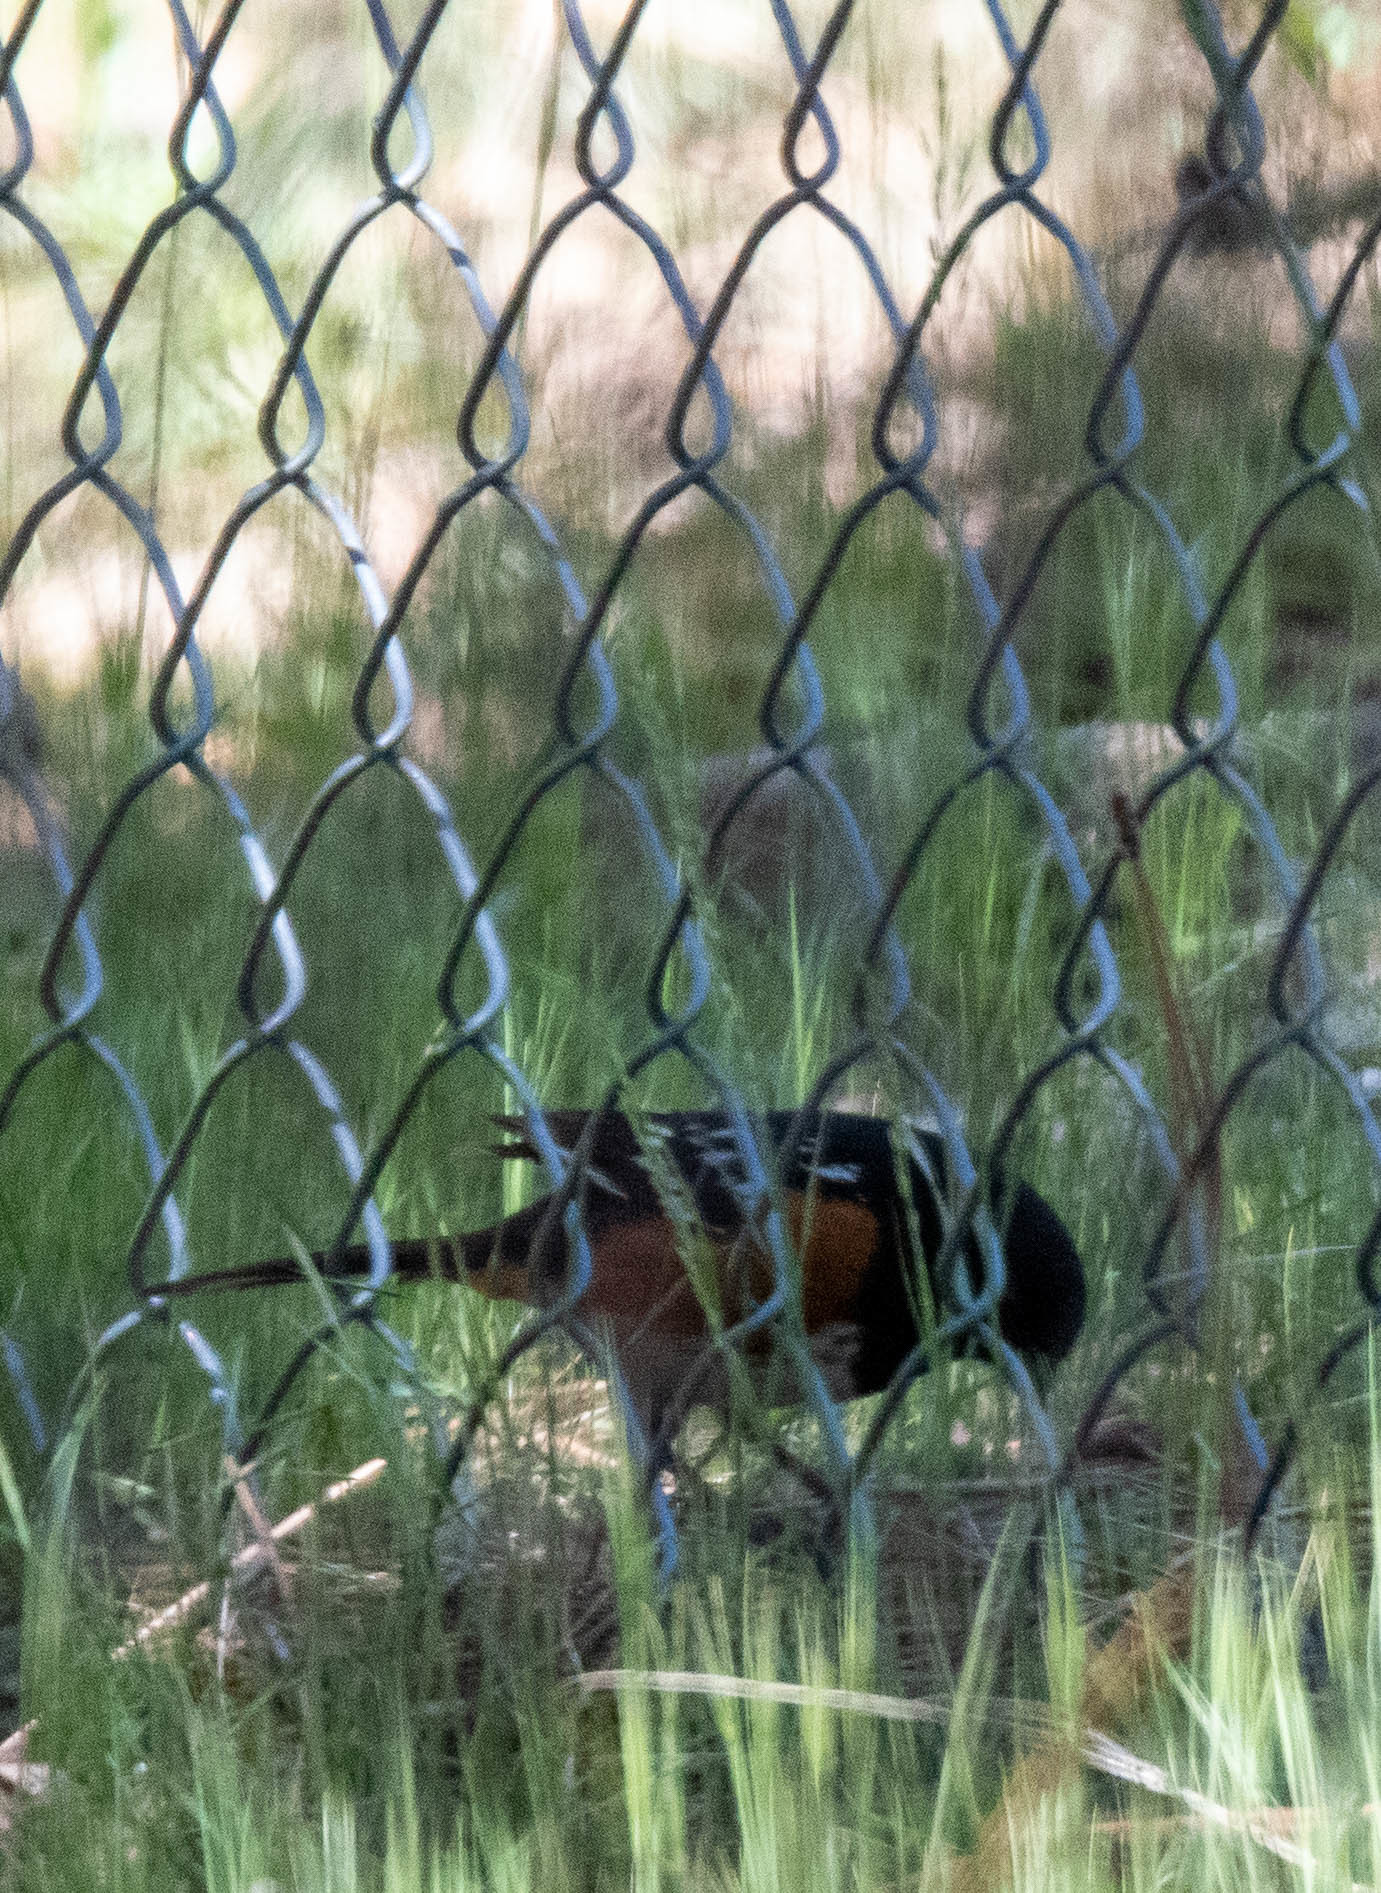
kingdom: Animalia
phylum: Chordata
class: Aves
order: Passeriformes
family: Passerellidae
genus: Pipilo
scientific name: Pipilo maculatus
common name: Spotted towhee
